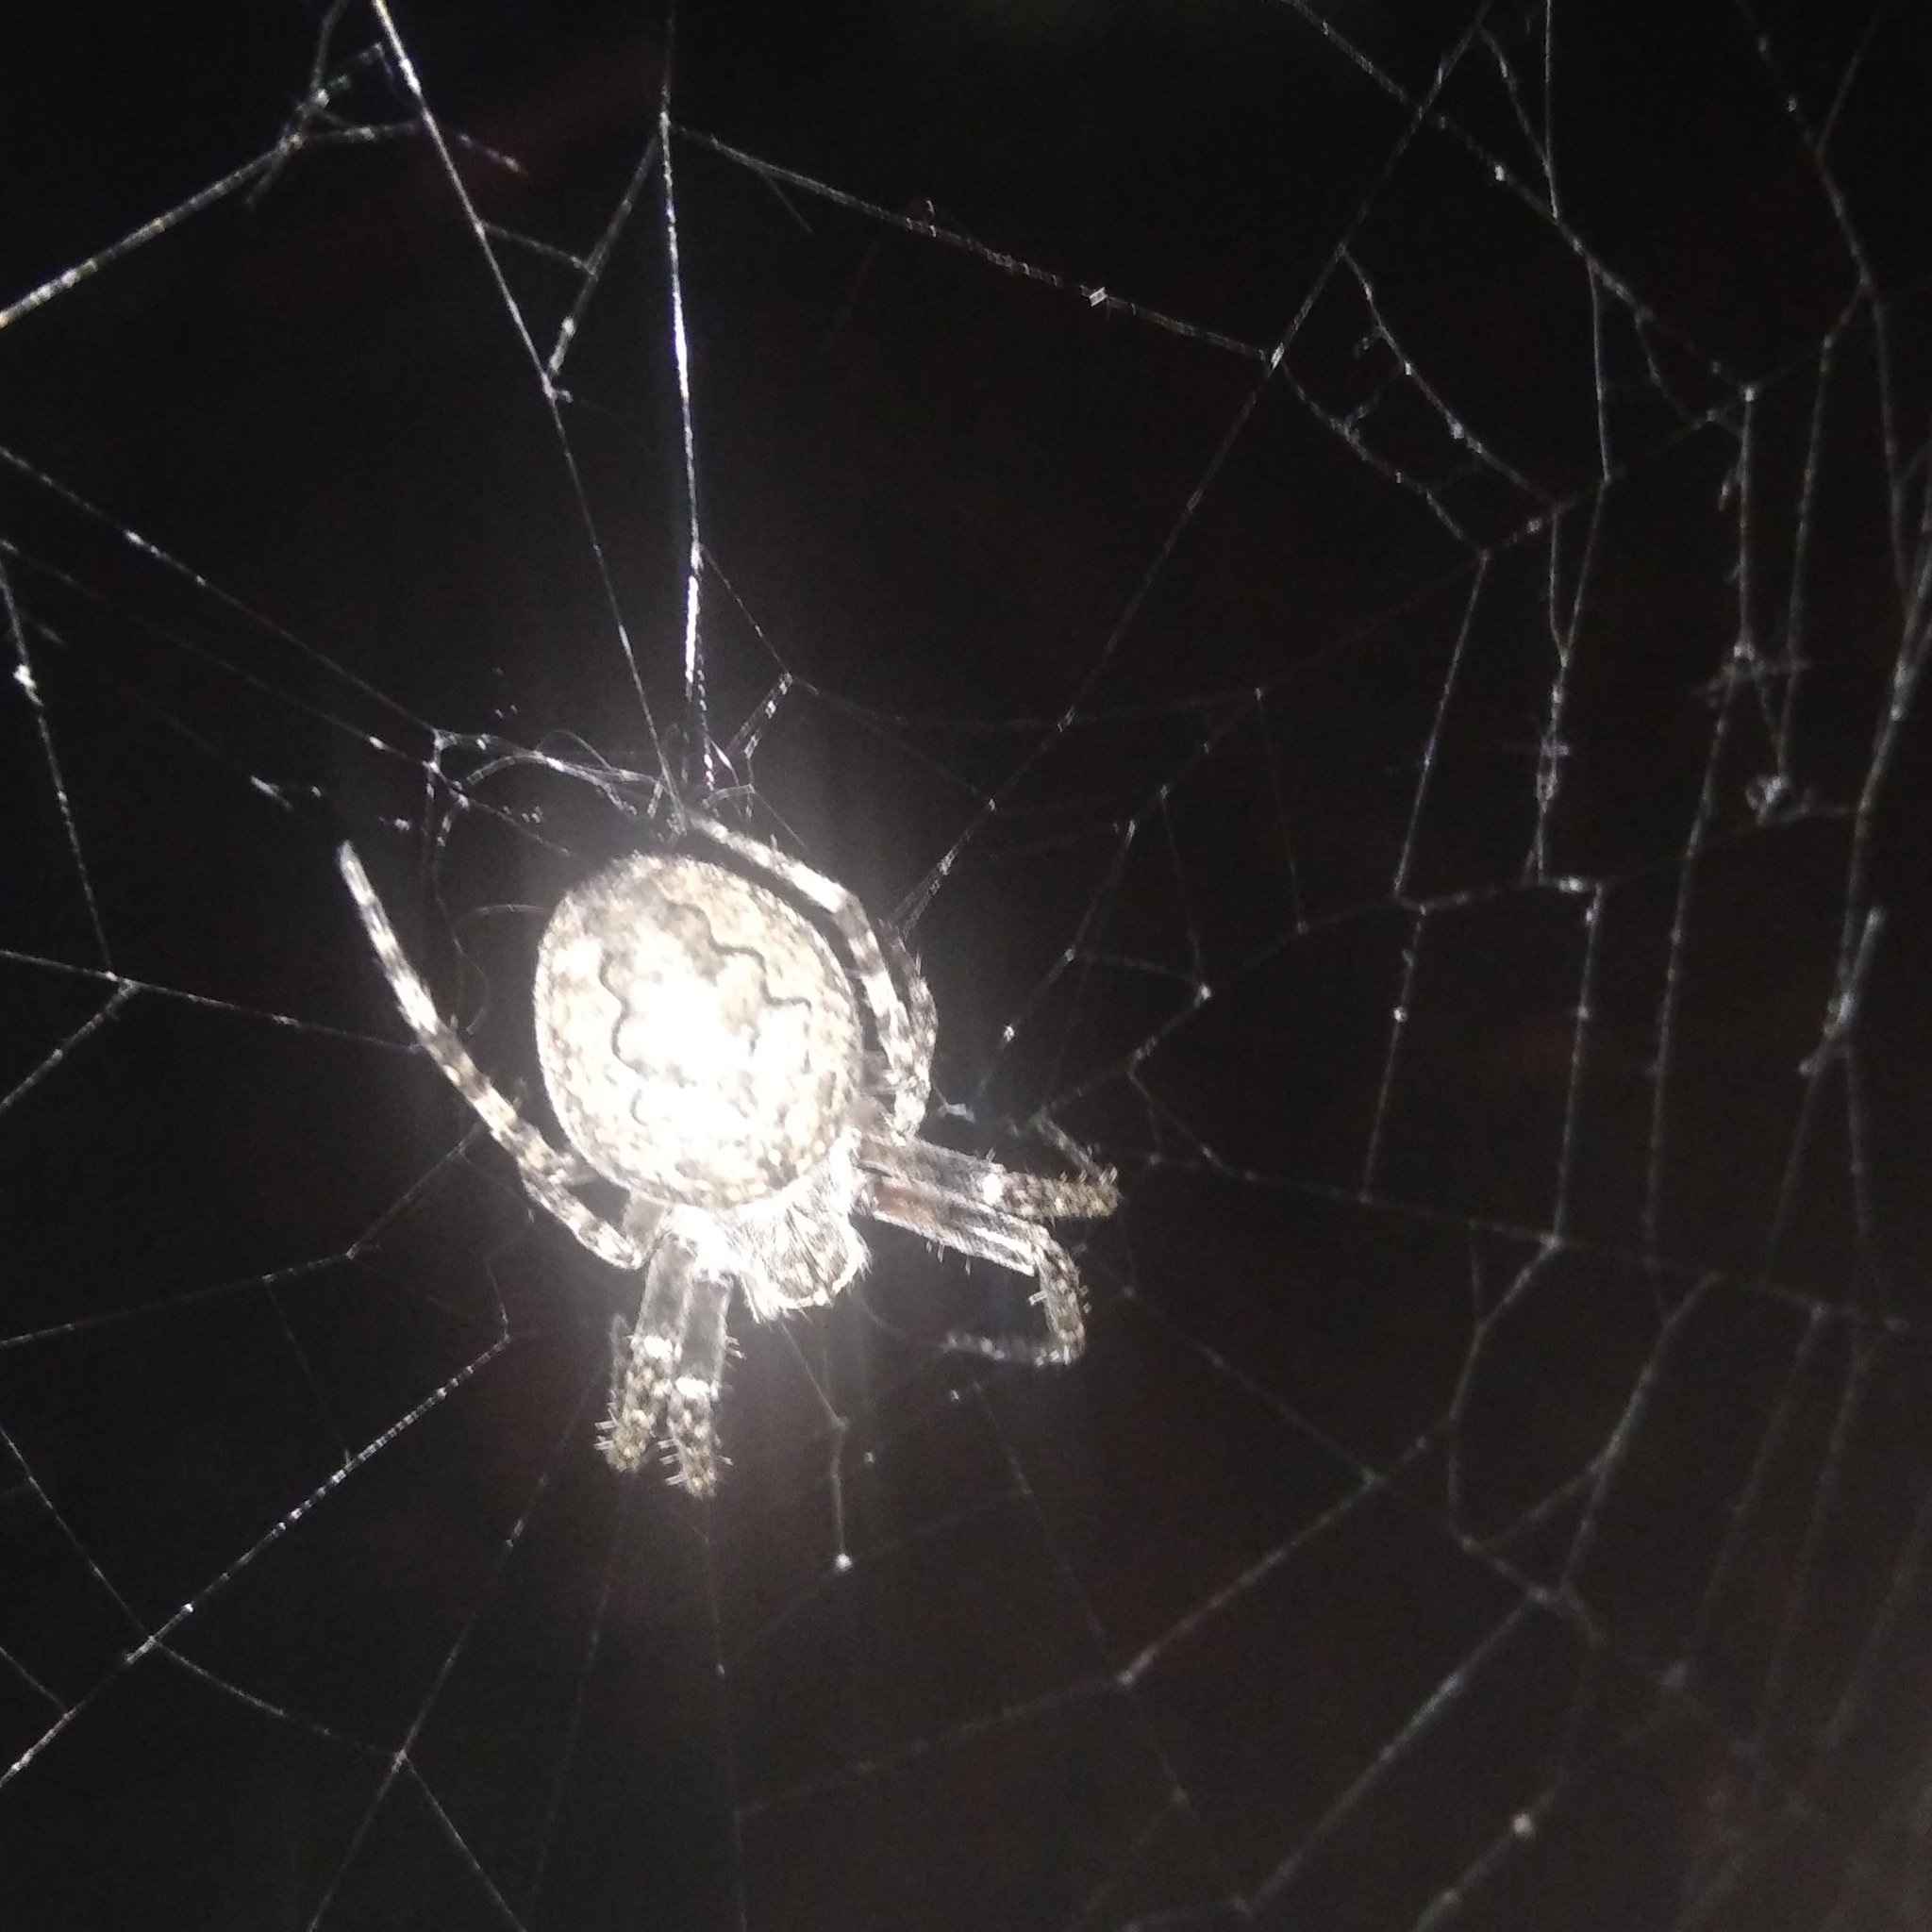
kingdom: Animalia
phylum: Arthropoda
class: Arachnida
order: Araneae
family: Araneidae
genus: Larinioides
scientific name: Larinioides ixobolus
